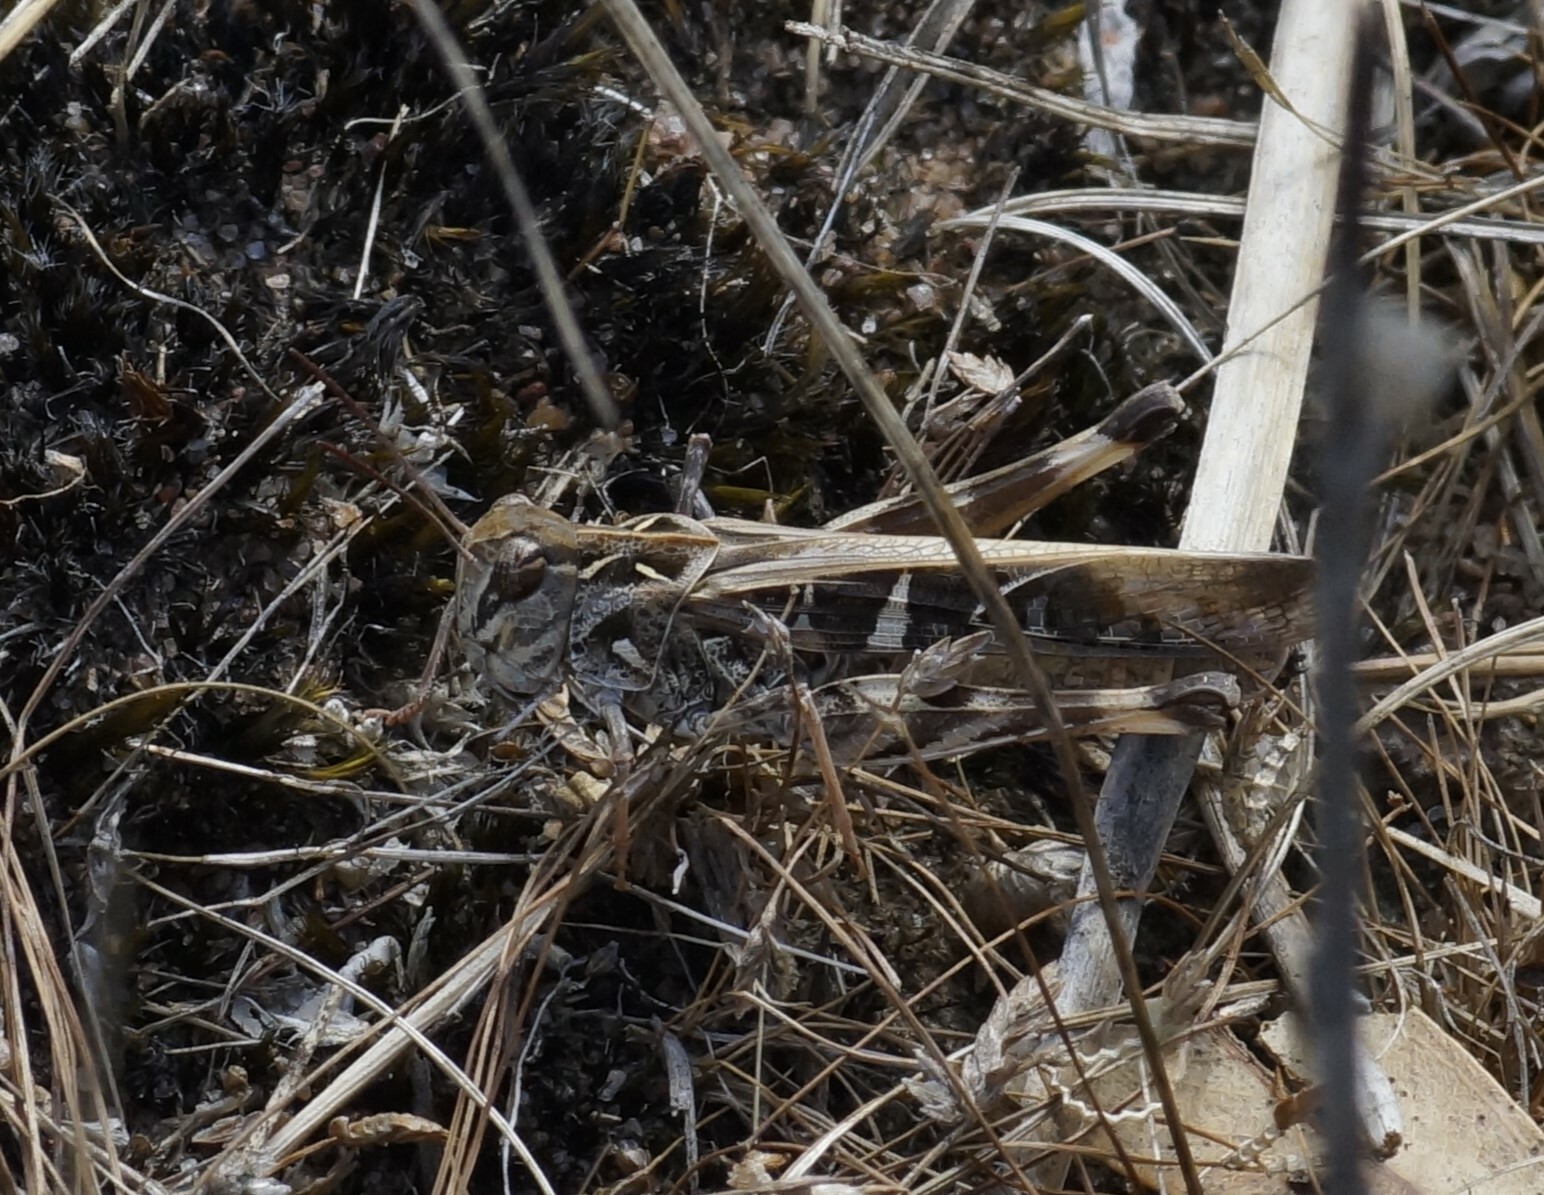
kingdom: Animalia
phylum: Arthropoda
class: Insecta
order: Orthoptera
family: Acrididae
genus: Oedaleus
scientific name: Oedaleus australis
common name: Eastern oedaleus
